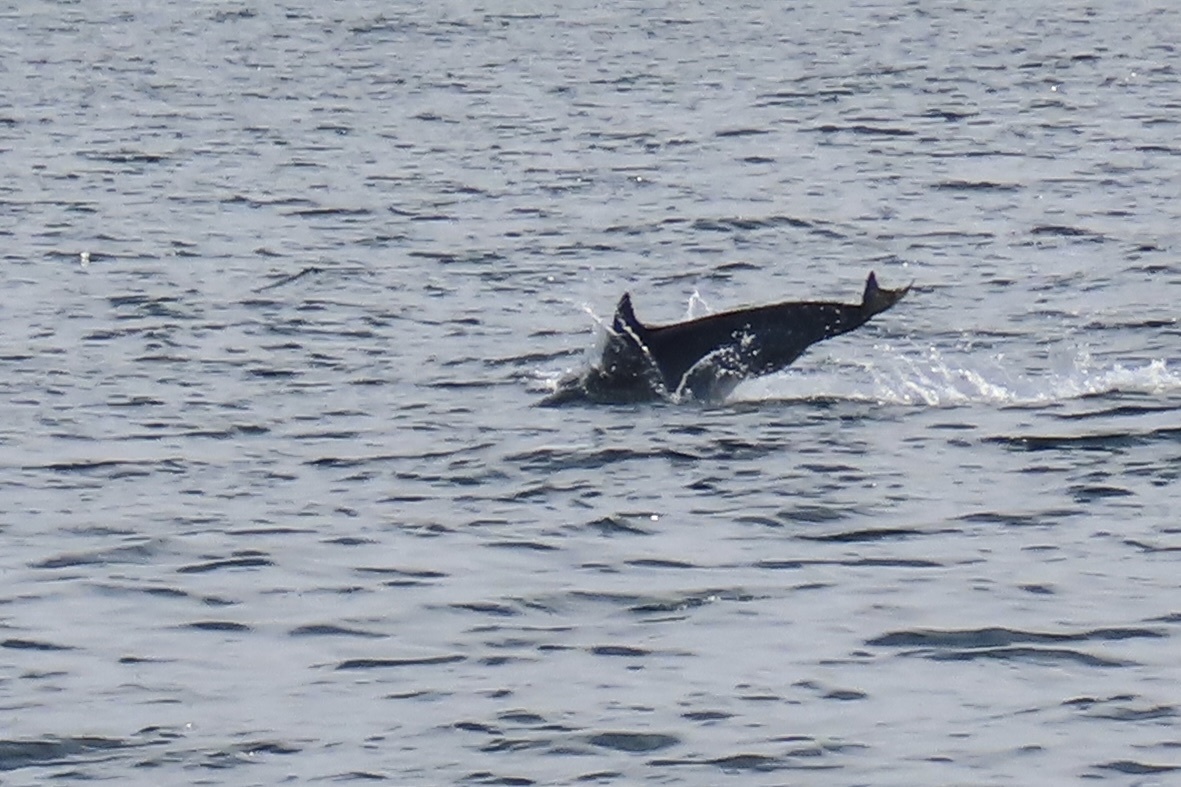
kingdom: Animalia
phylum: Chordata
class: Mammalia
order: Cetacea
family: Delphinidae
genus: Delphinus
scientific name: Delphinus delphis
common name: Common dolphin
